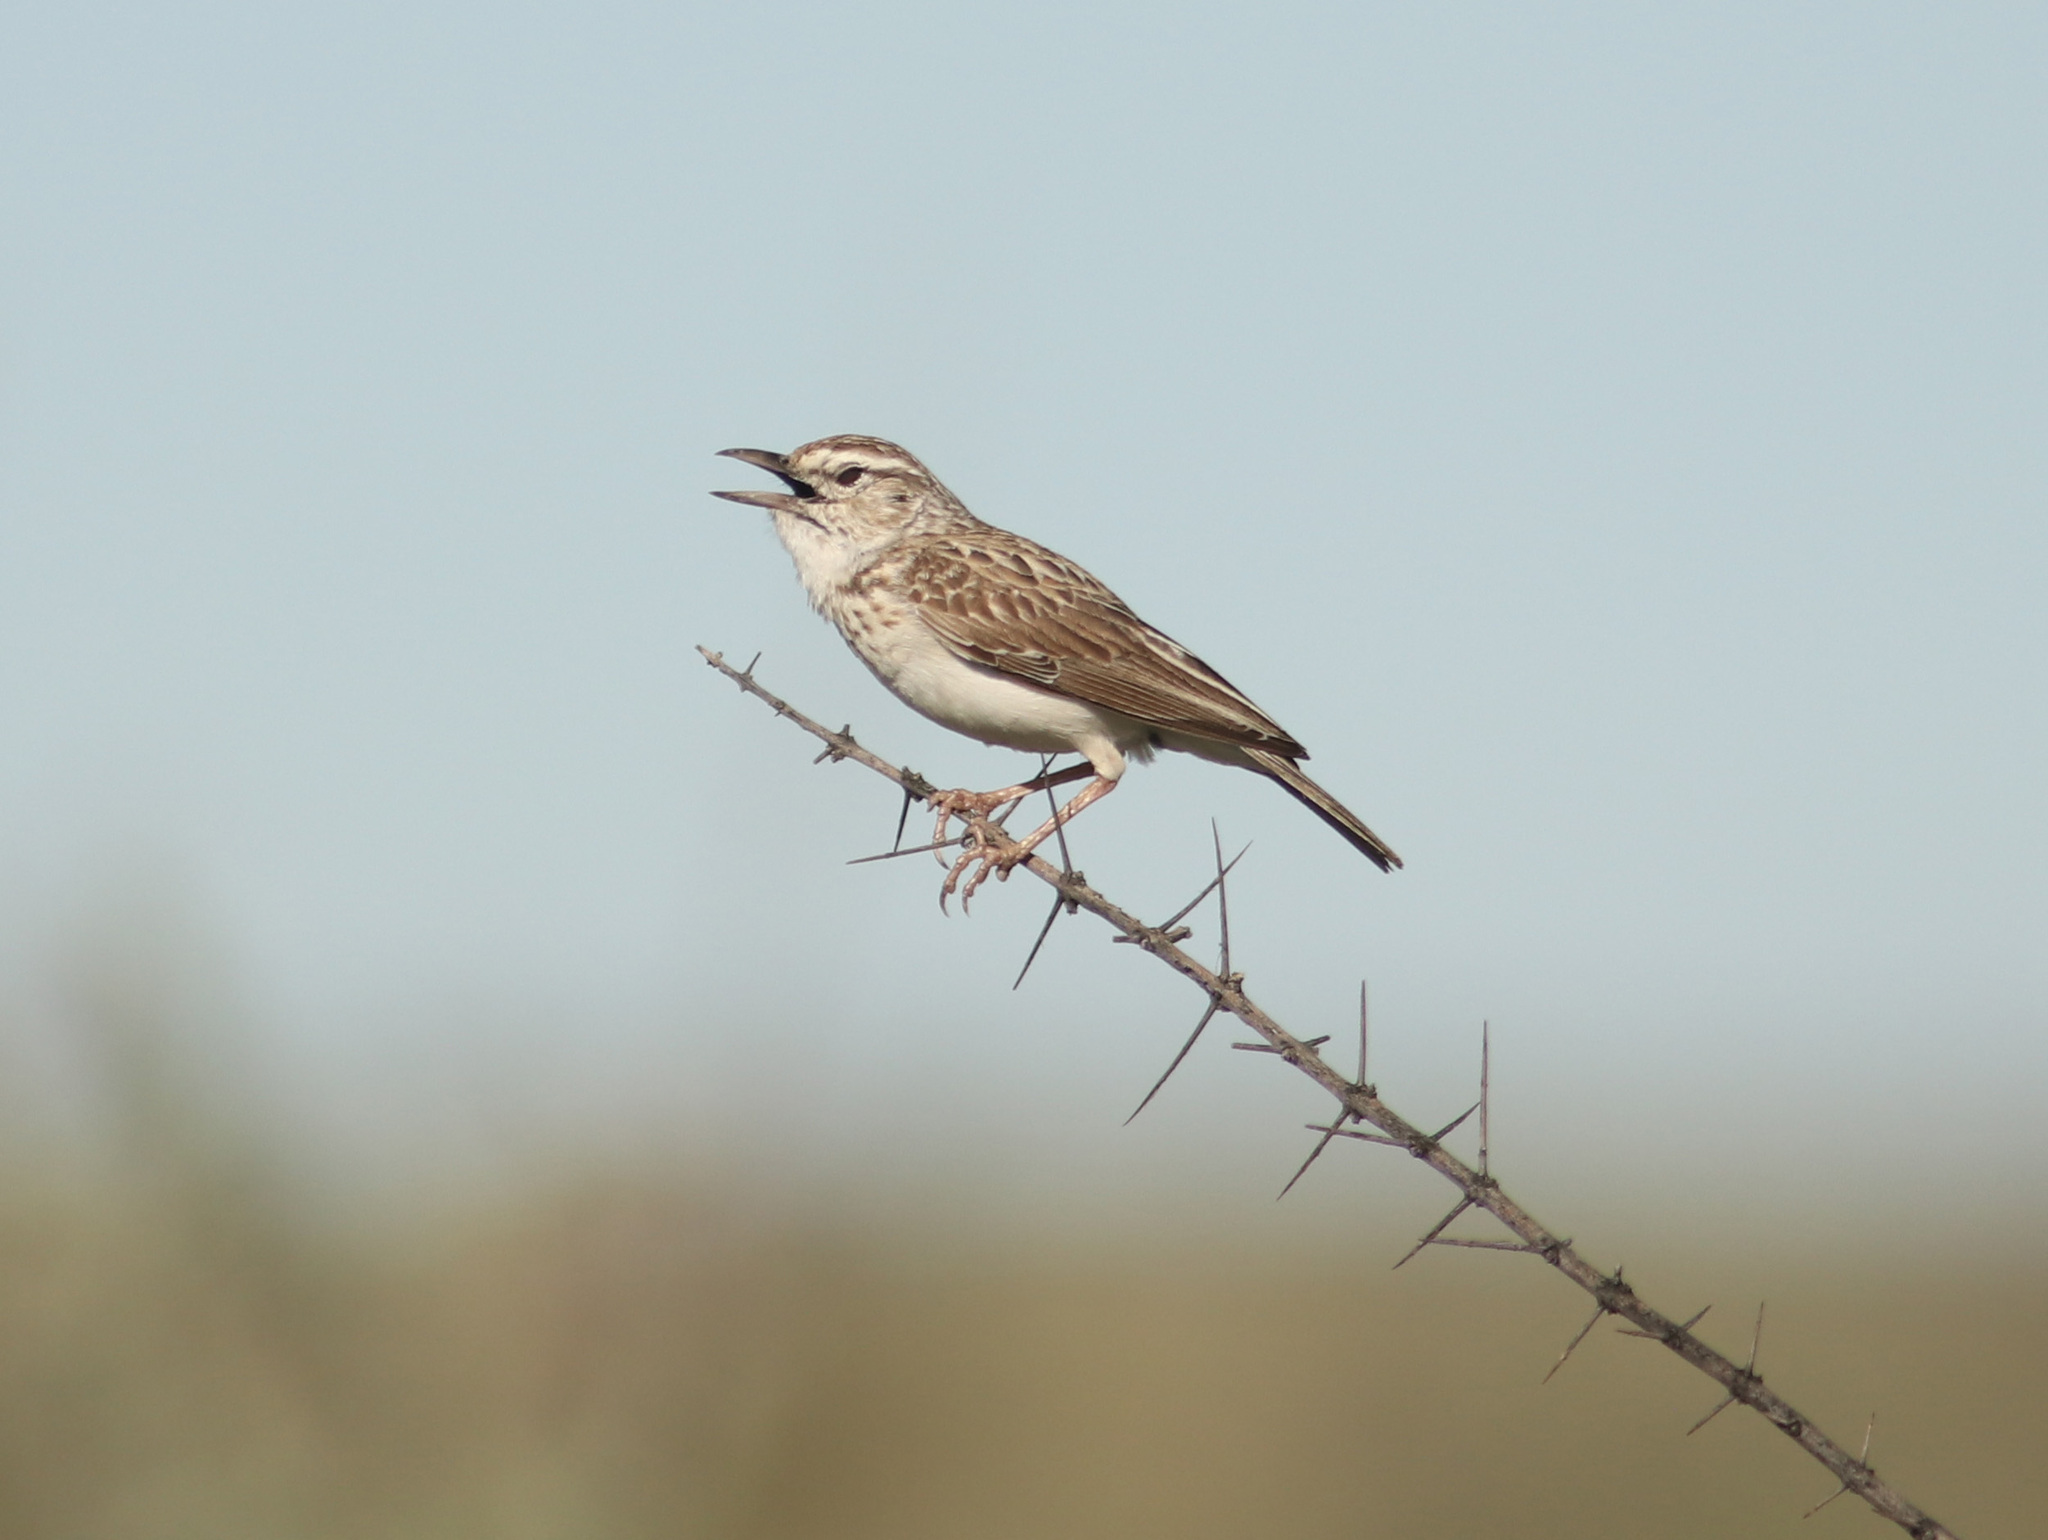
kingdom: Animalia
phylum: Chordata
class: Aves
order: Passeriformes
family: Alaudidae
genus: Calendulauda
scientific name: Calendulauda sabota
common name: Sabota lark
